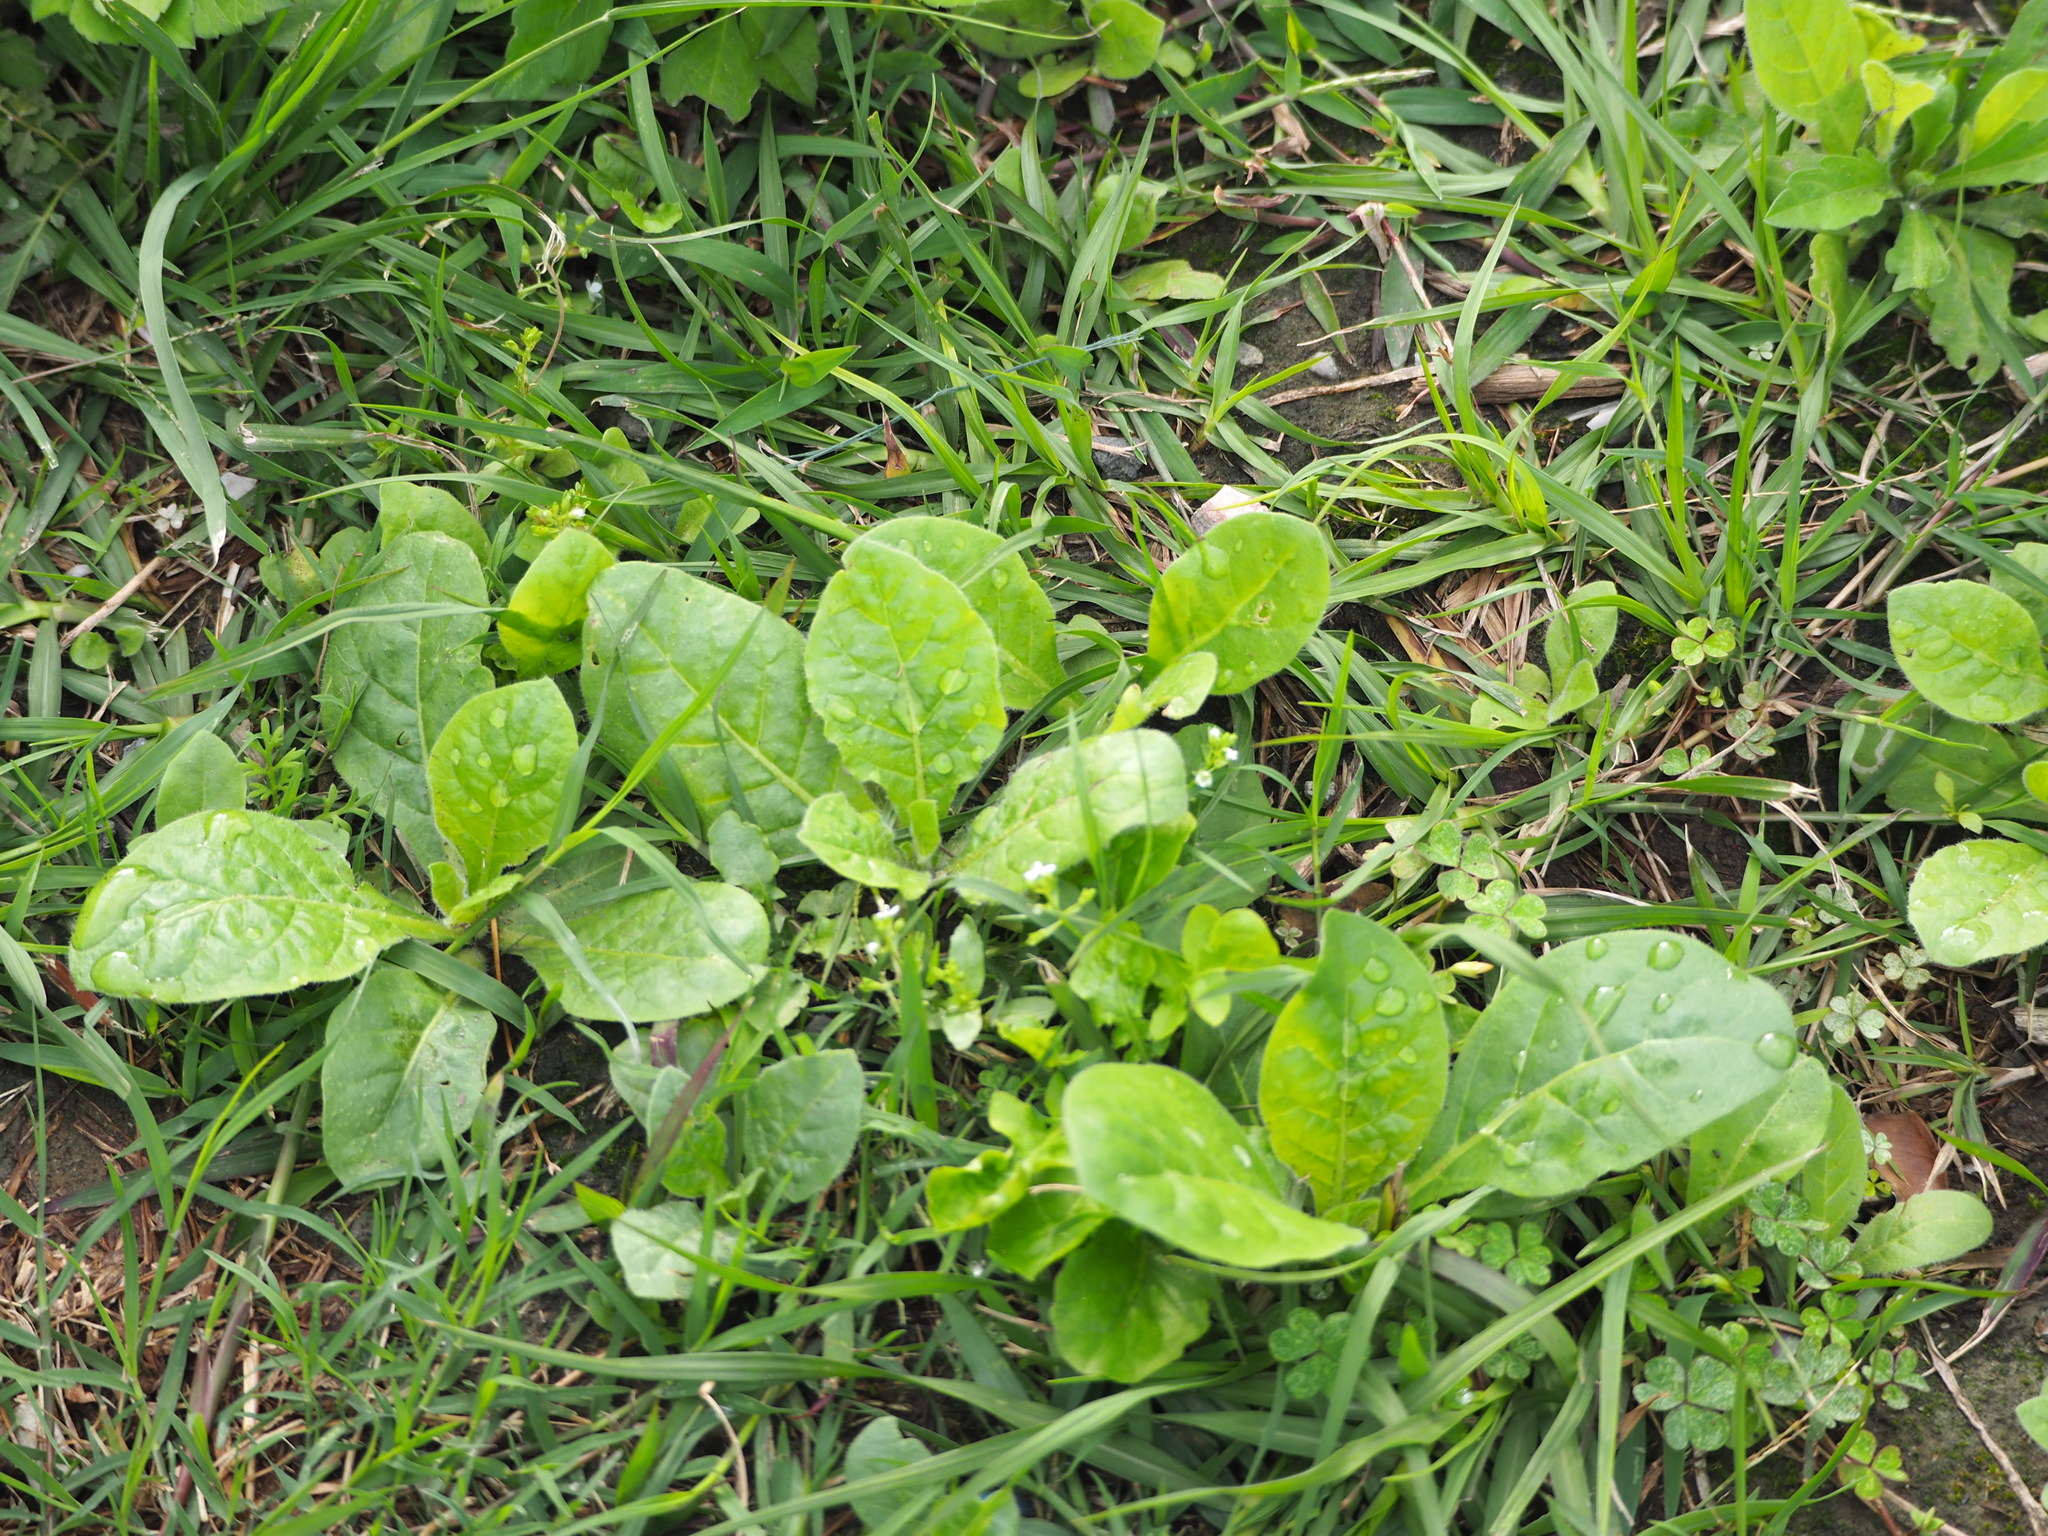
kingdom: Plantae
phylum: Tracheophyta
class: Magnoliopsida
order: Solanales
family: Solanaceae
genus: Nicotiana
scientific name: Nicotiana plumbaginifolia
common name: Tex-mex tobacco
